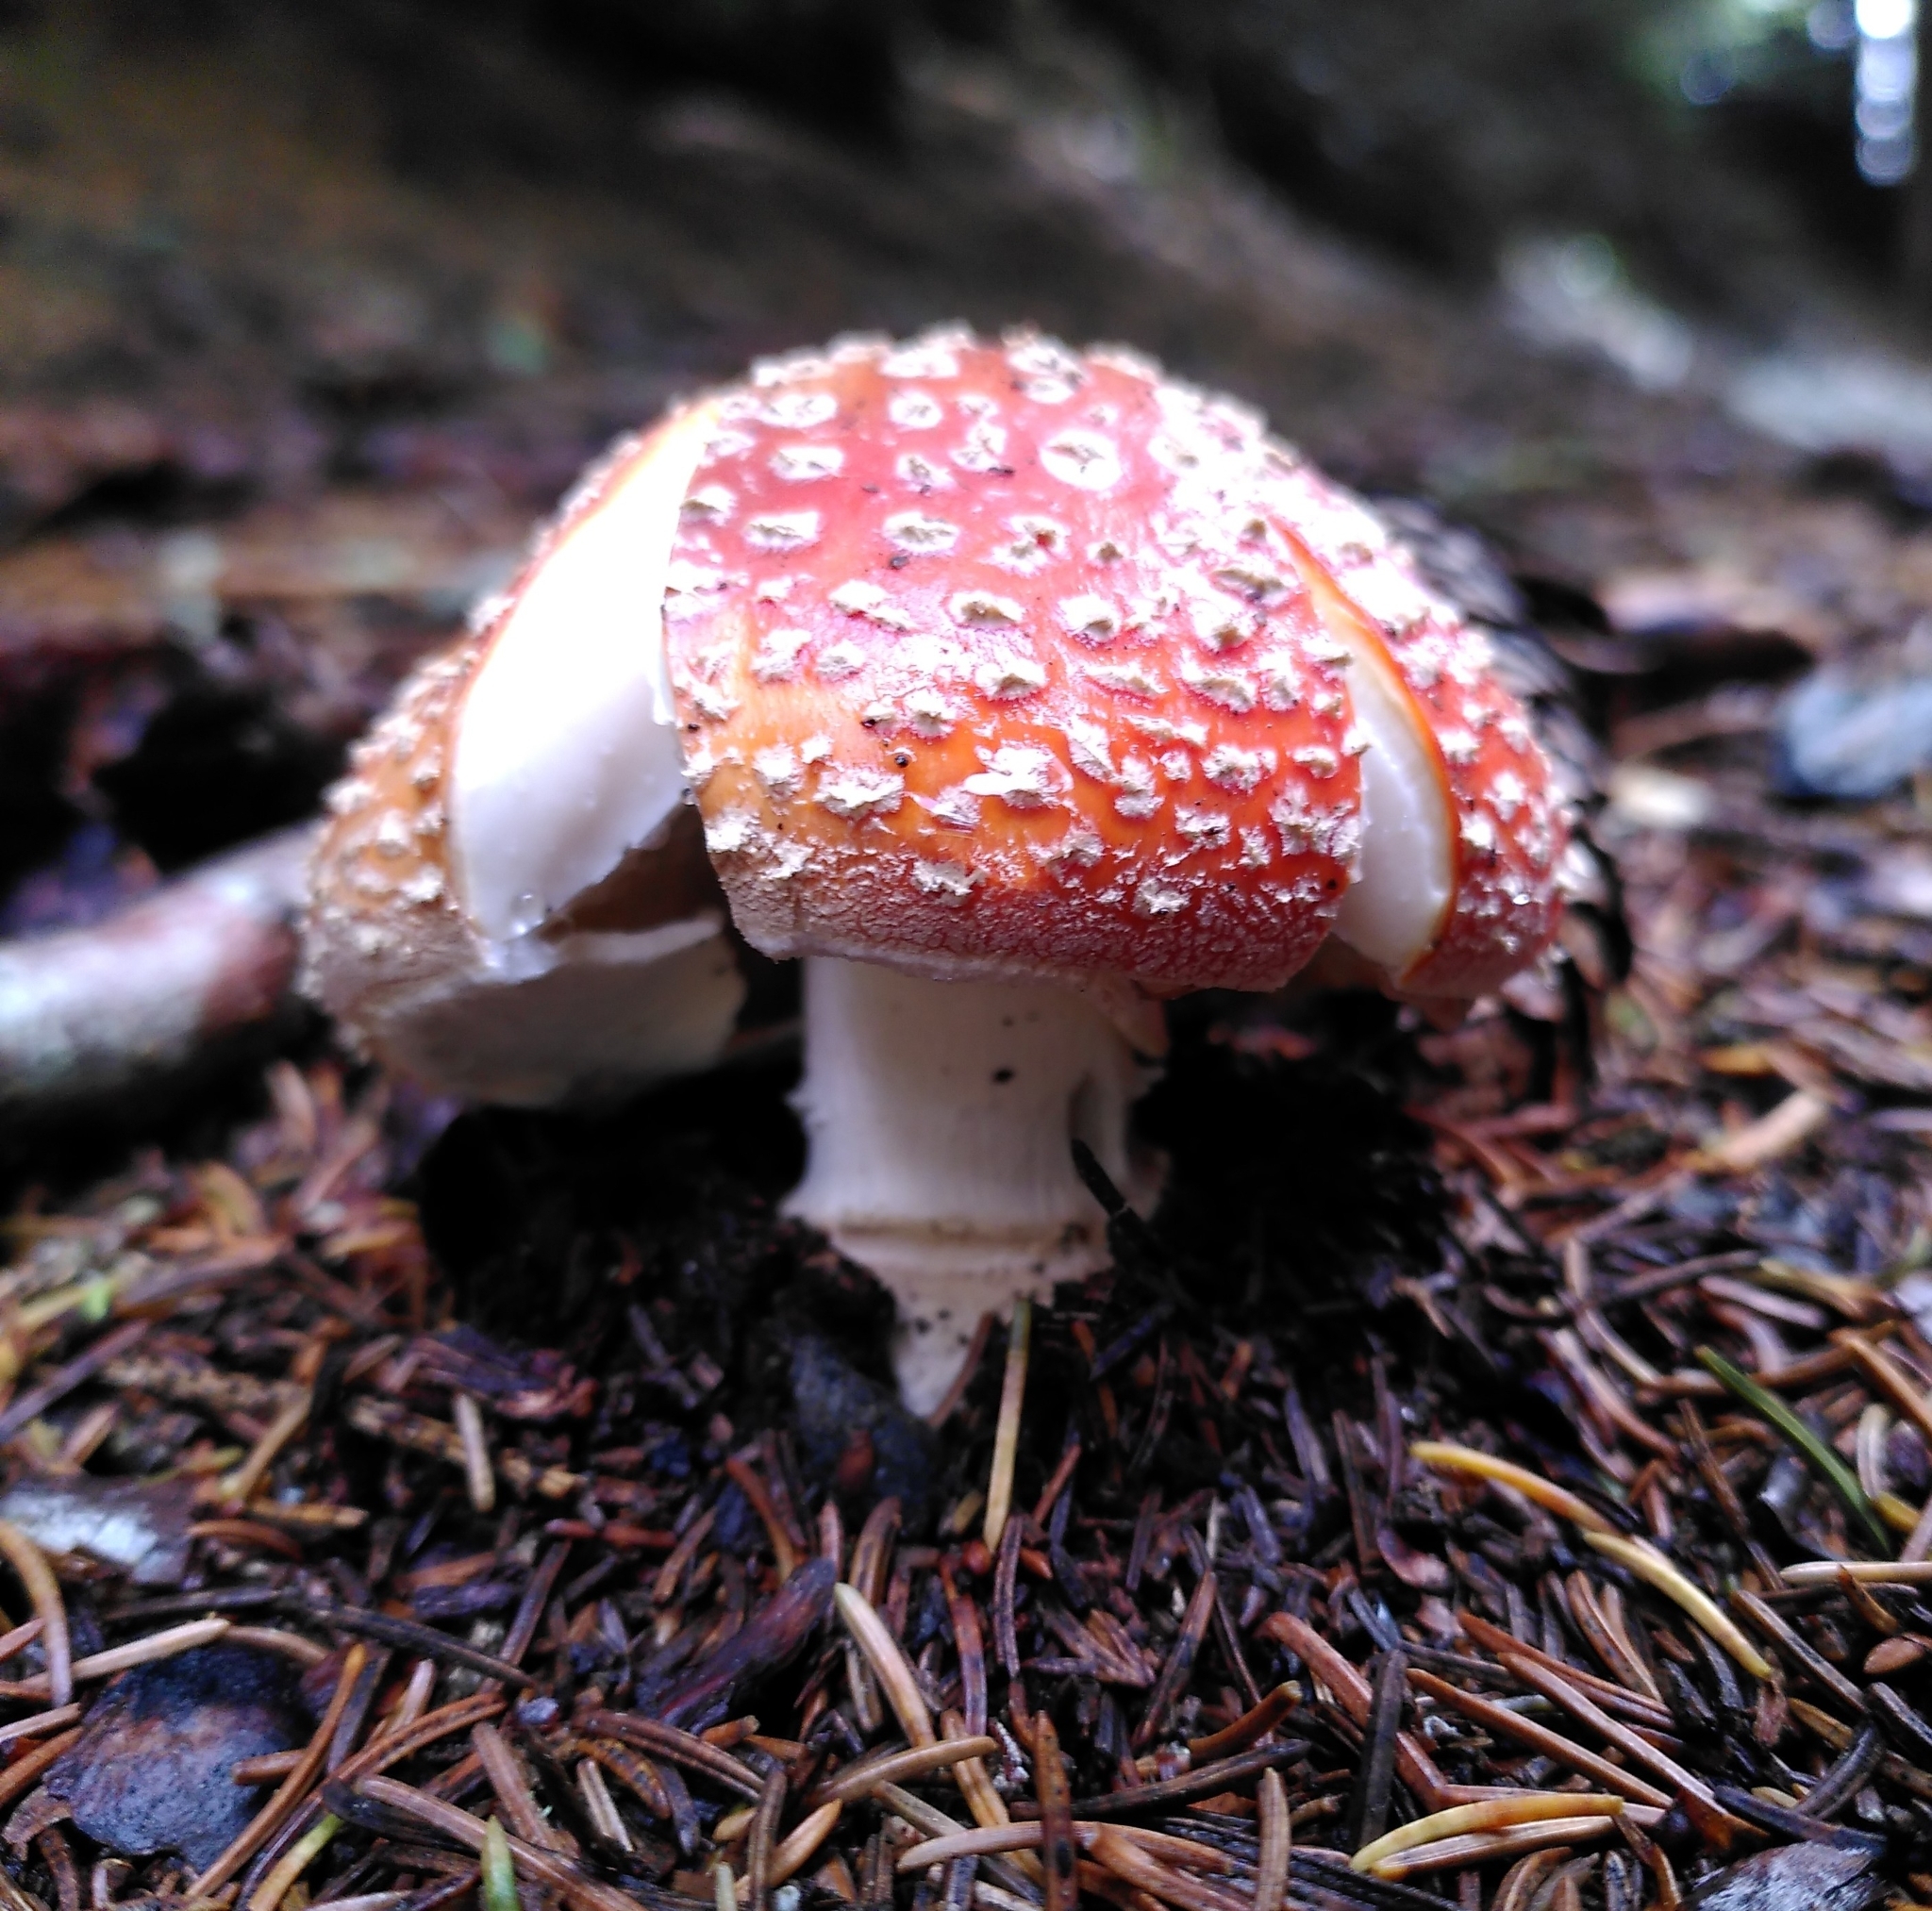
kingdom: Fungi
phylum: Basidiomycota
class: Agaricomycetes
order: Agaricales
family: Amanitaceae
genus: Amanita
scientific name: Amanita muscaria
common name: Fly agaric
